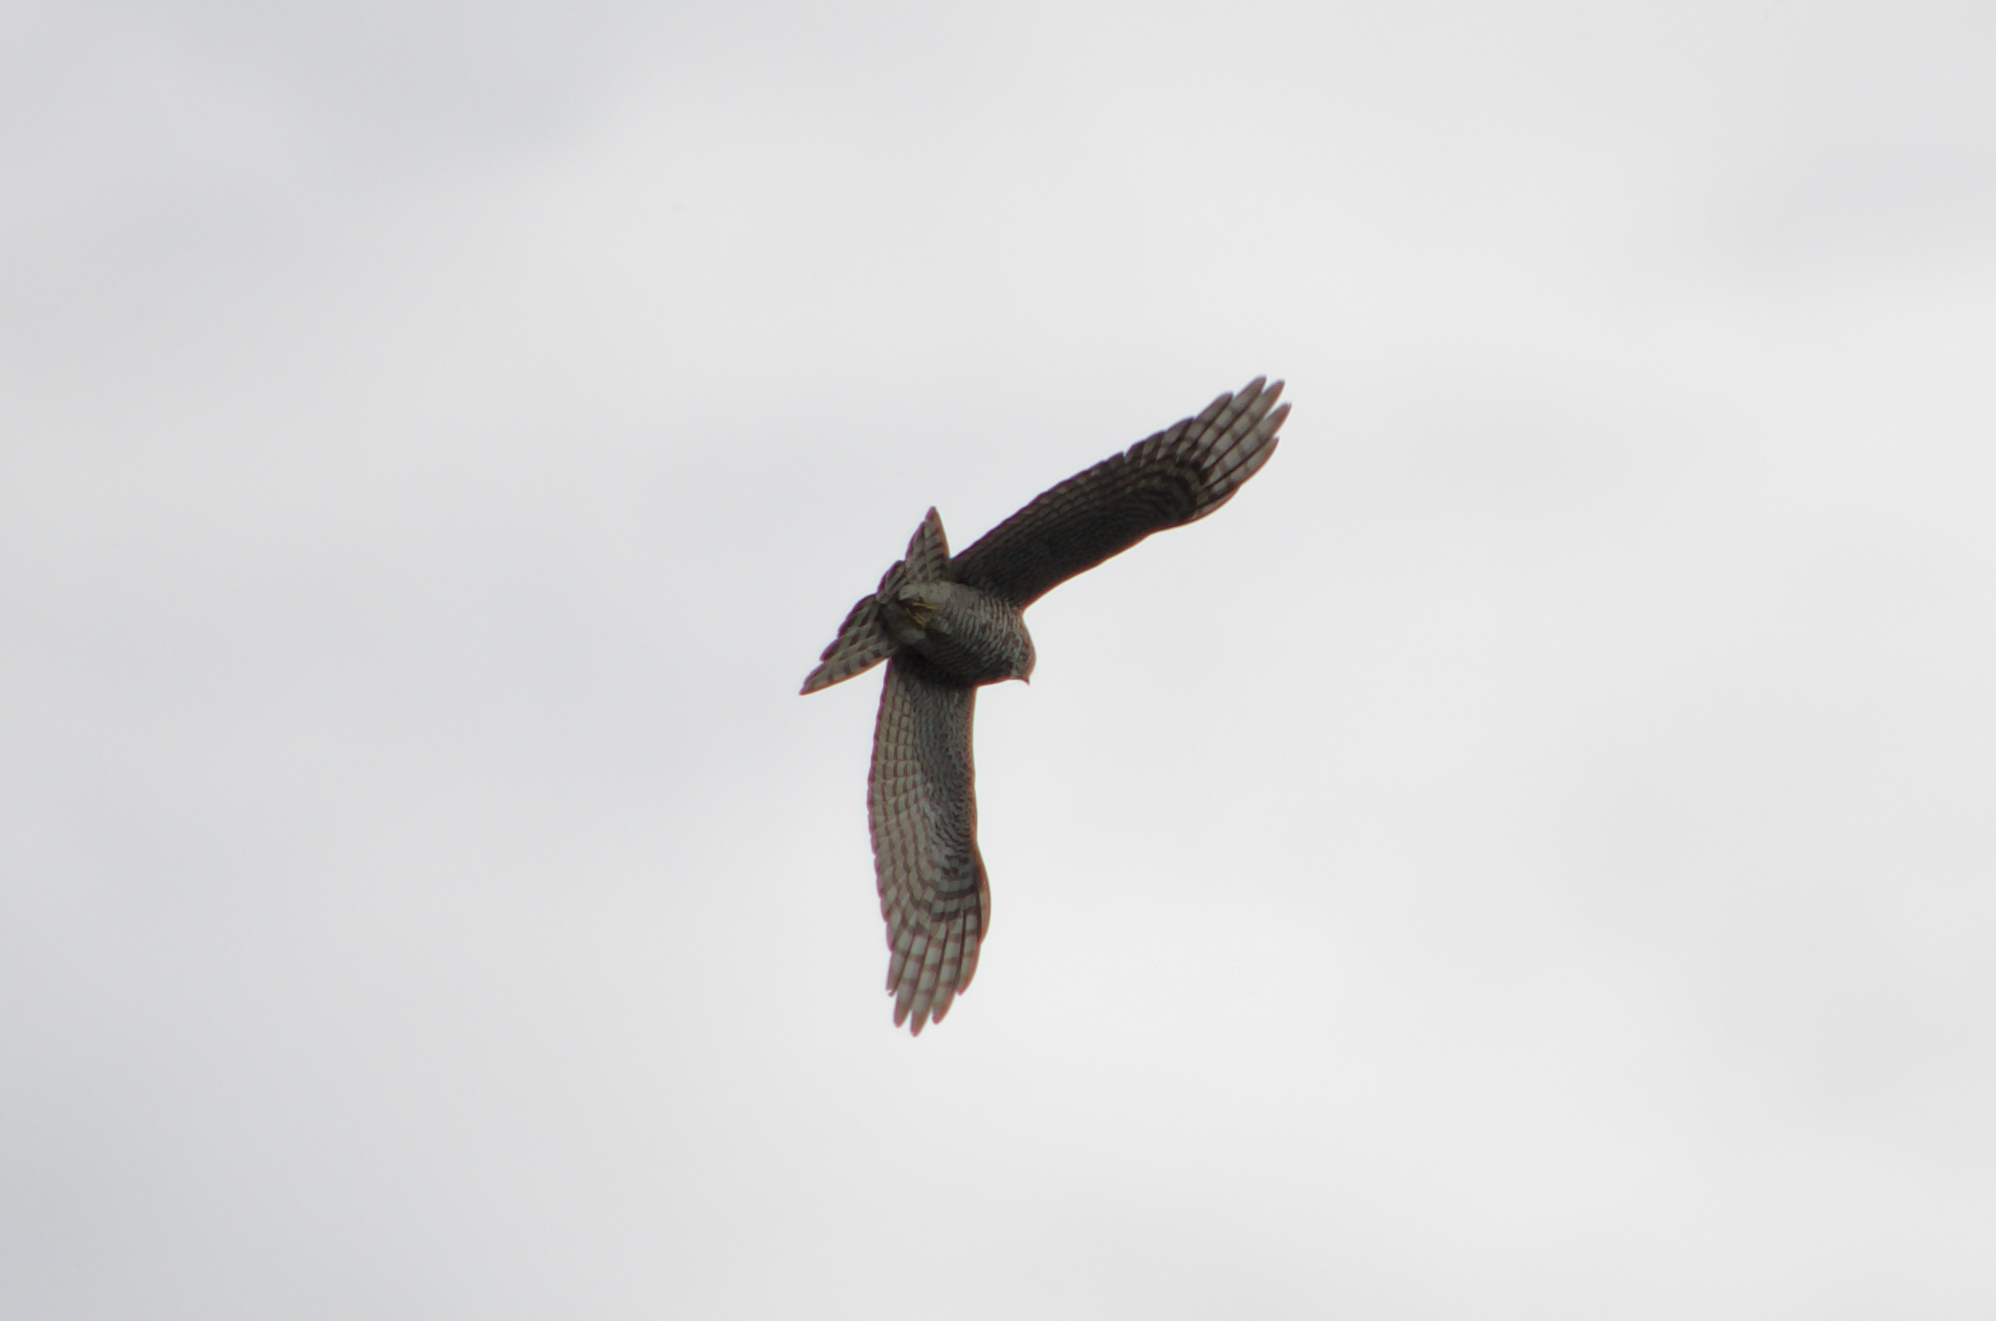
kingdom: Animalia
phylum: Chordata
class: Aves
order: Accipitriformes
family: Accipitridae
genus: Accipiter
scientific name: Accipiter nisus
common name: Eurasian sparrowhawk
